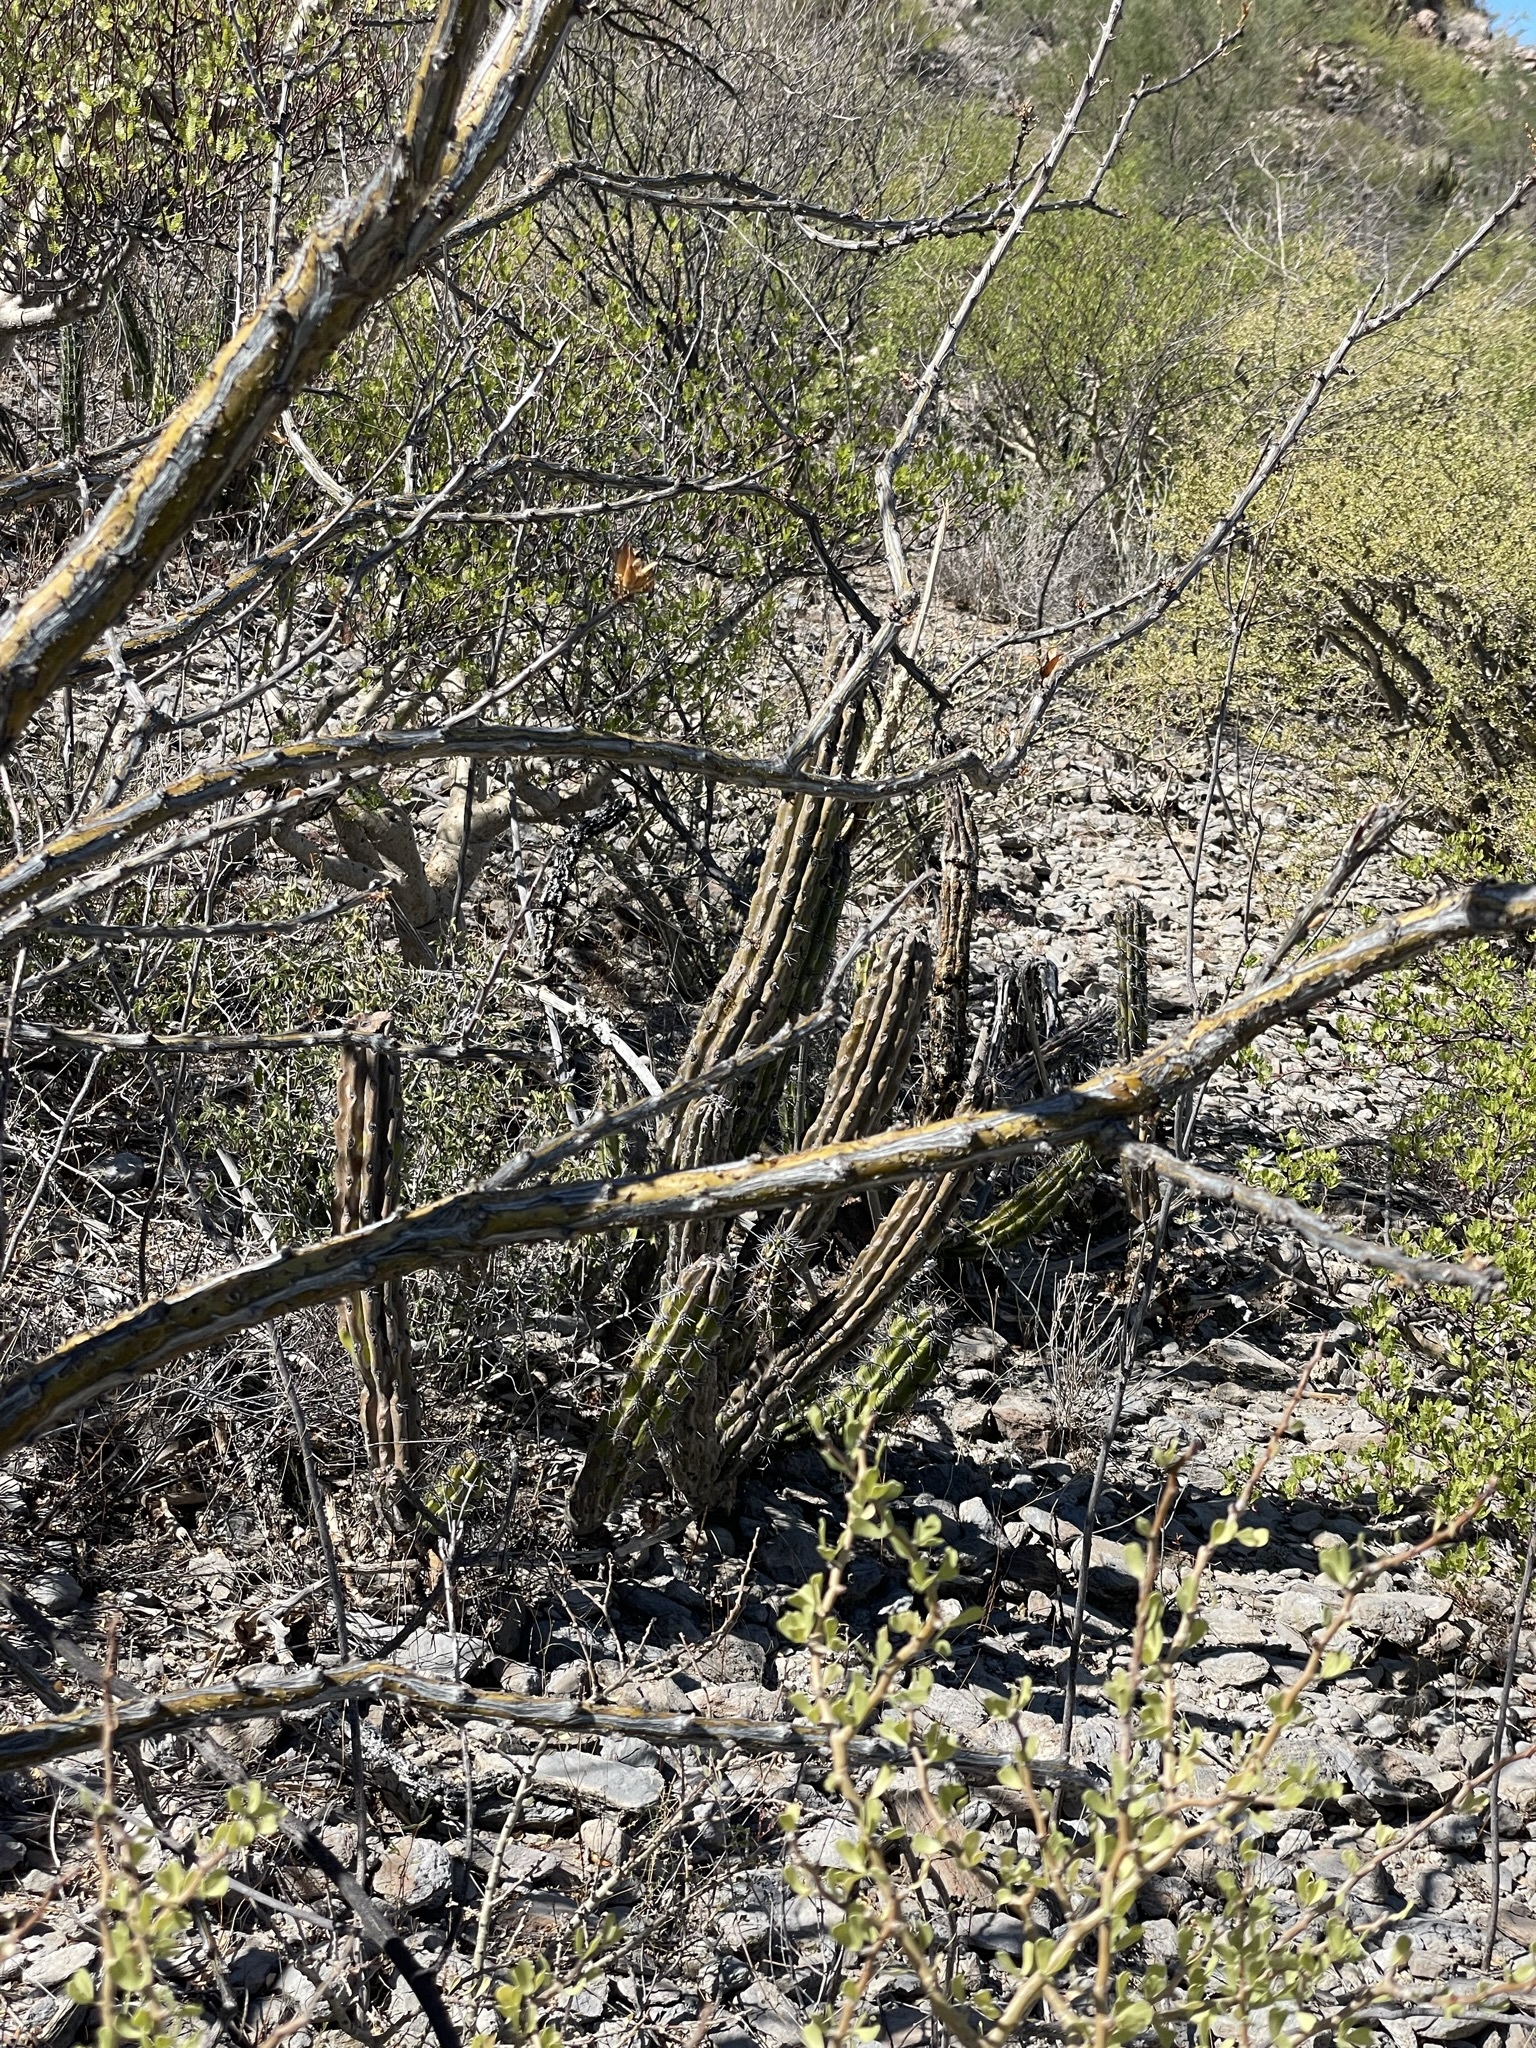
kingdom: Plantae
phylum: Tracheophyta
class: Magnoliopsida
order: Caryophyllales
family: Cactaceae
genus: Stenocereus
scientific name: Stenocereus gummosus
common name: Dagger cactus
